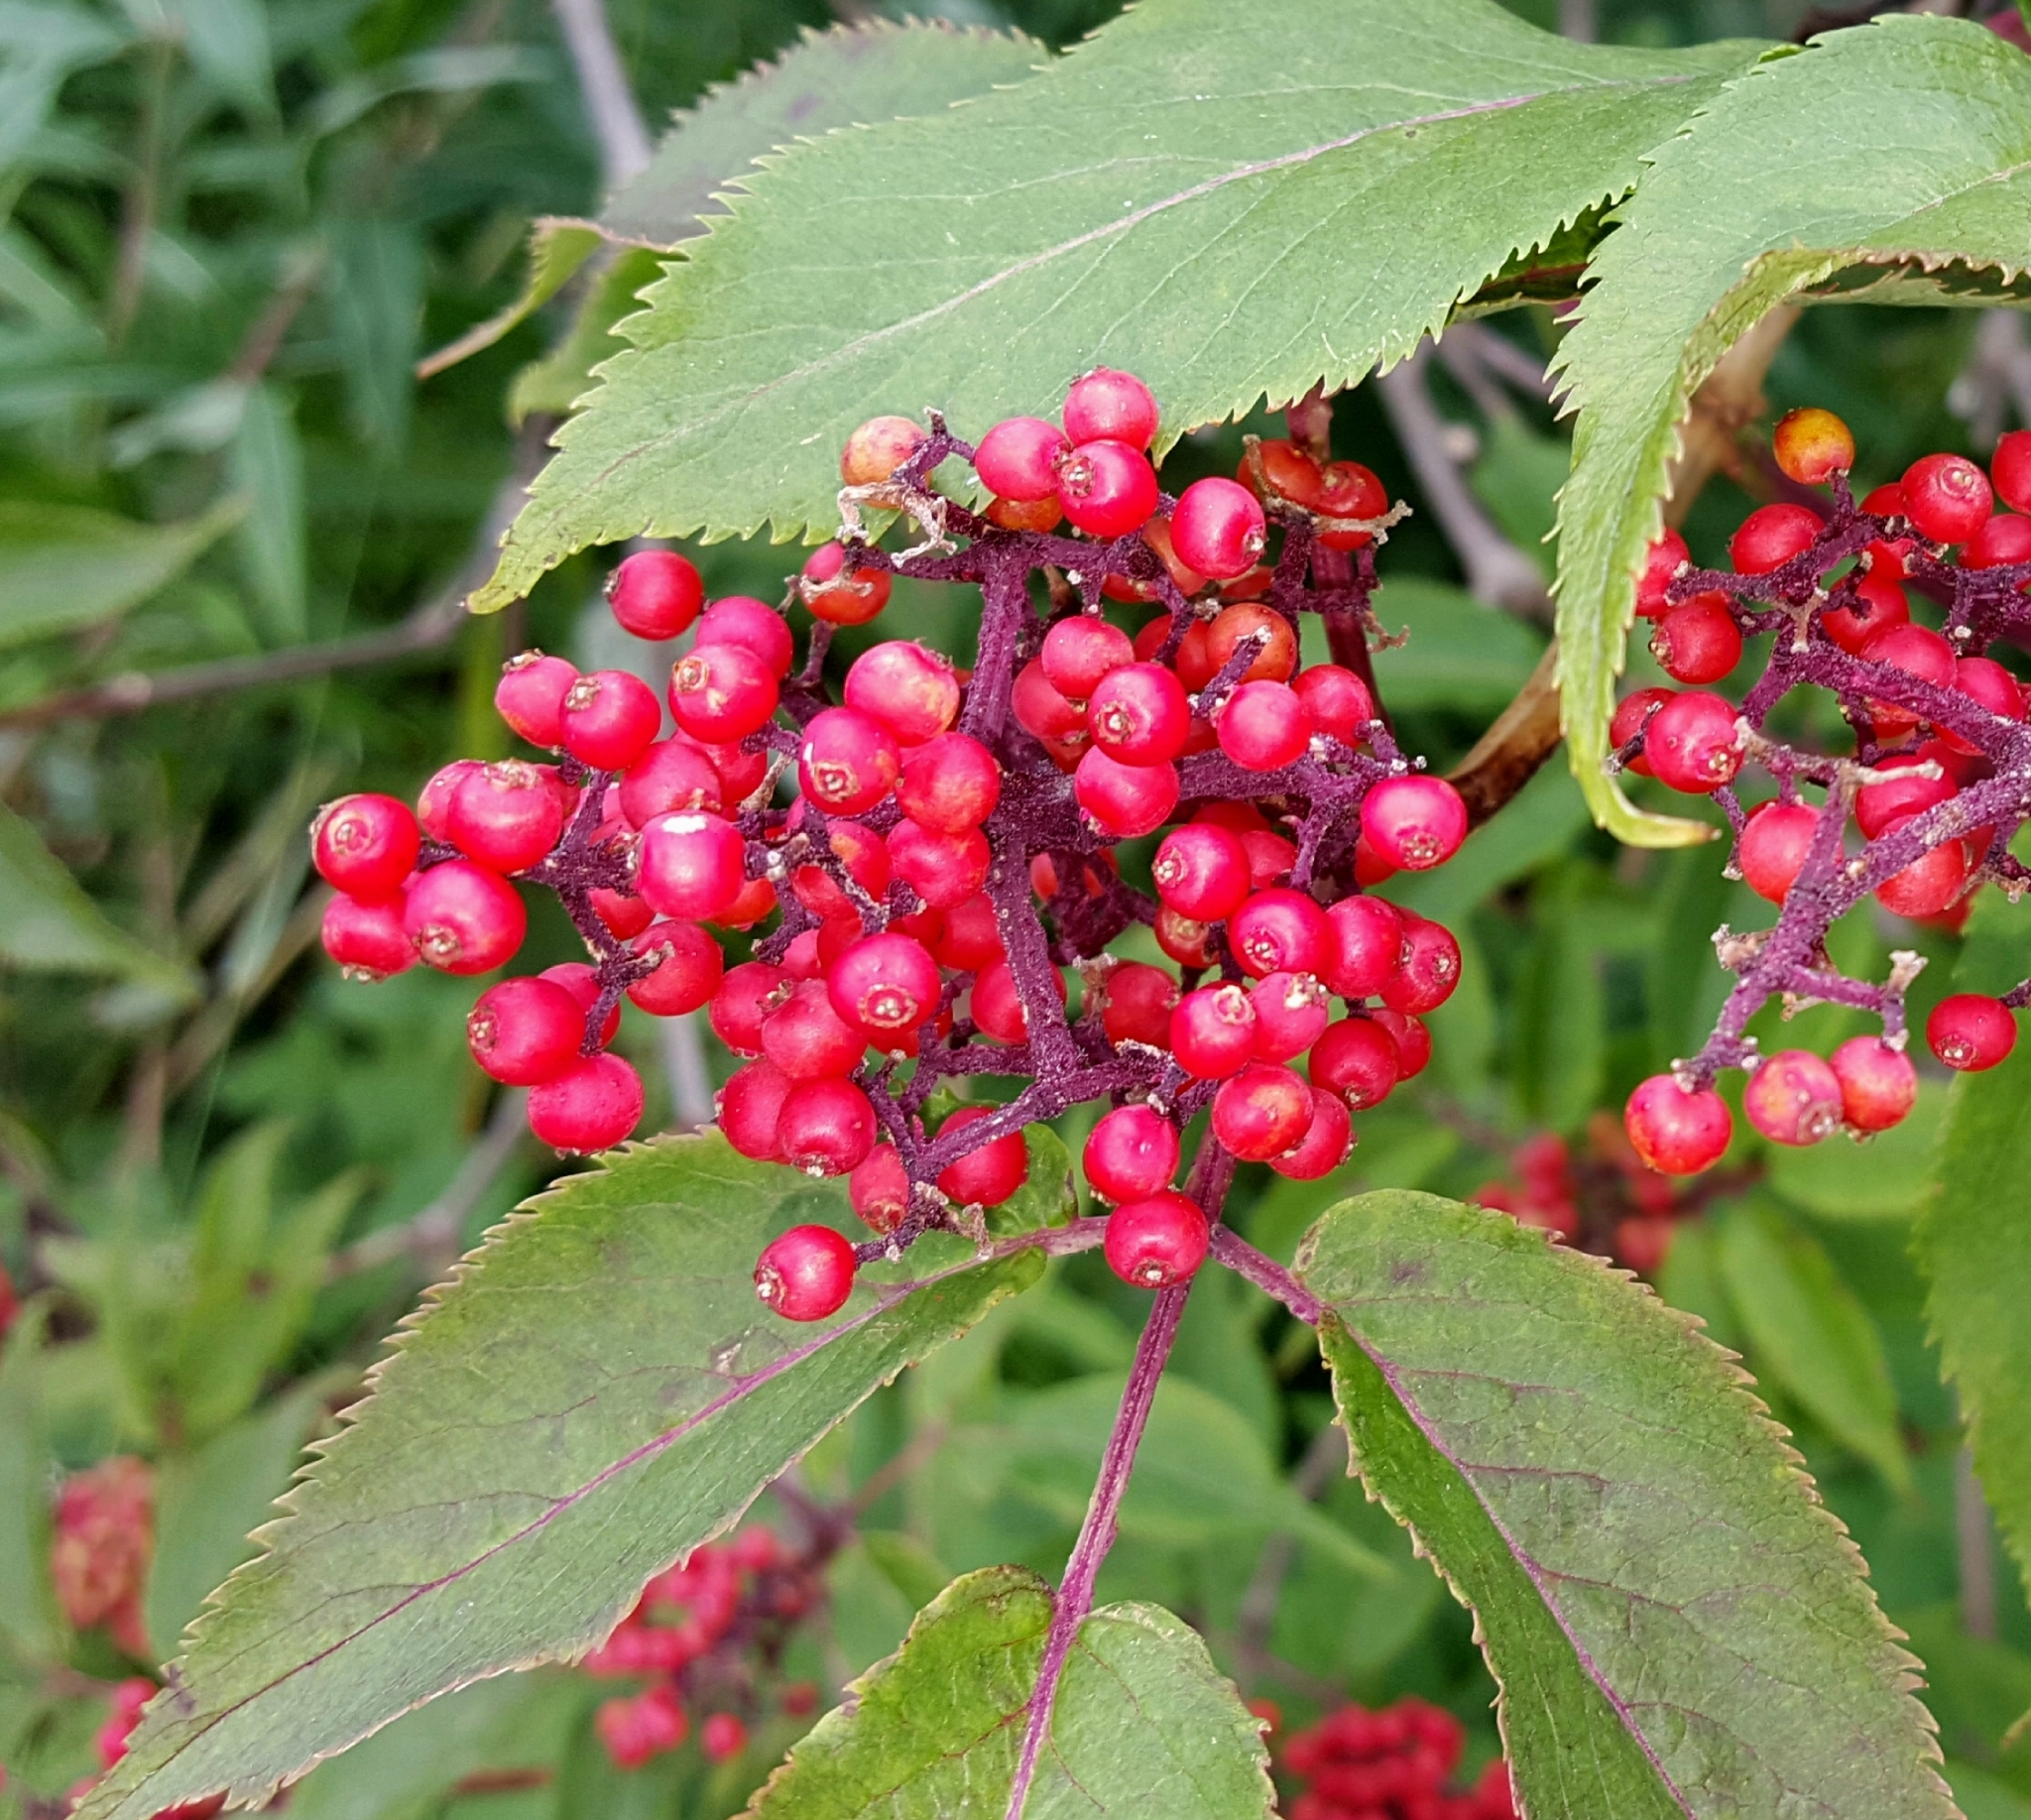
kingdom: Plantae
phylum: Tracheophyta
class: Magnoliopsida
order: Dipsacales
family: Viburnaceae
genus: Sambucus
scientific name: Sambucus racemosa
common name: Red-berried elder
